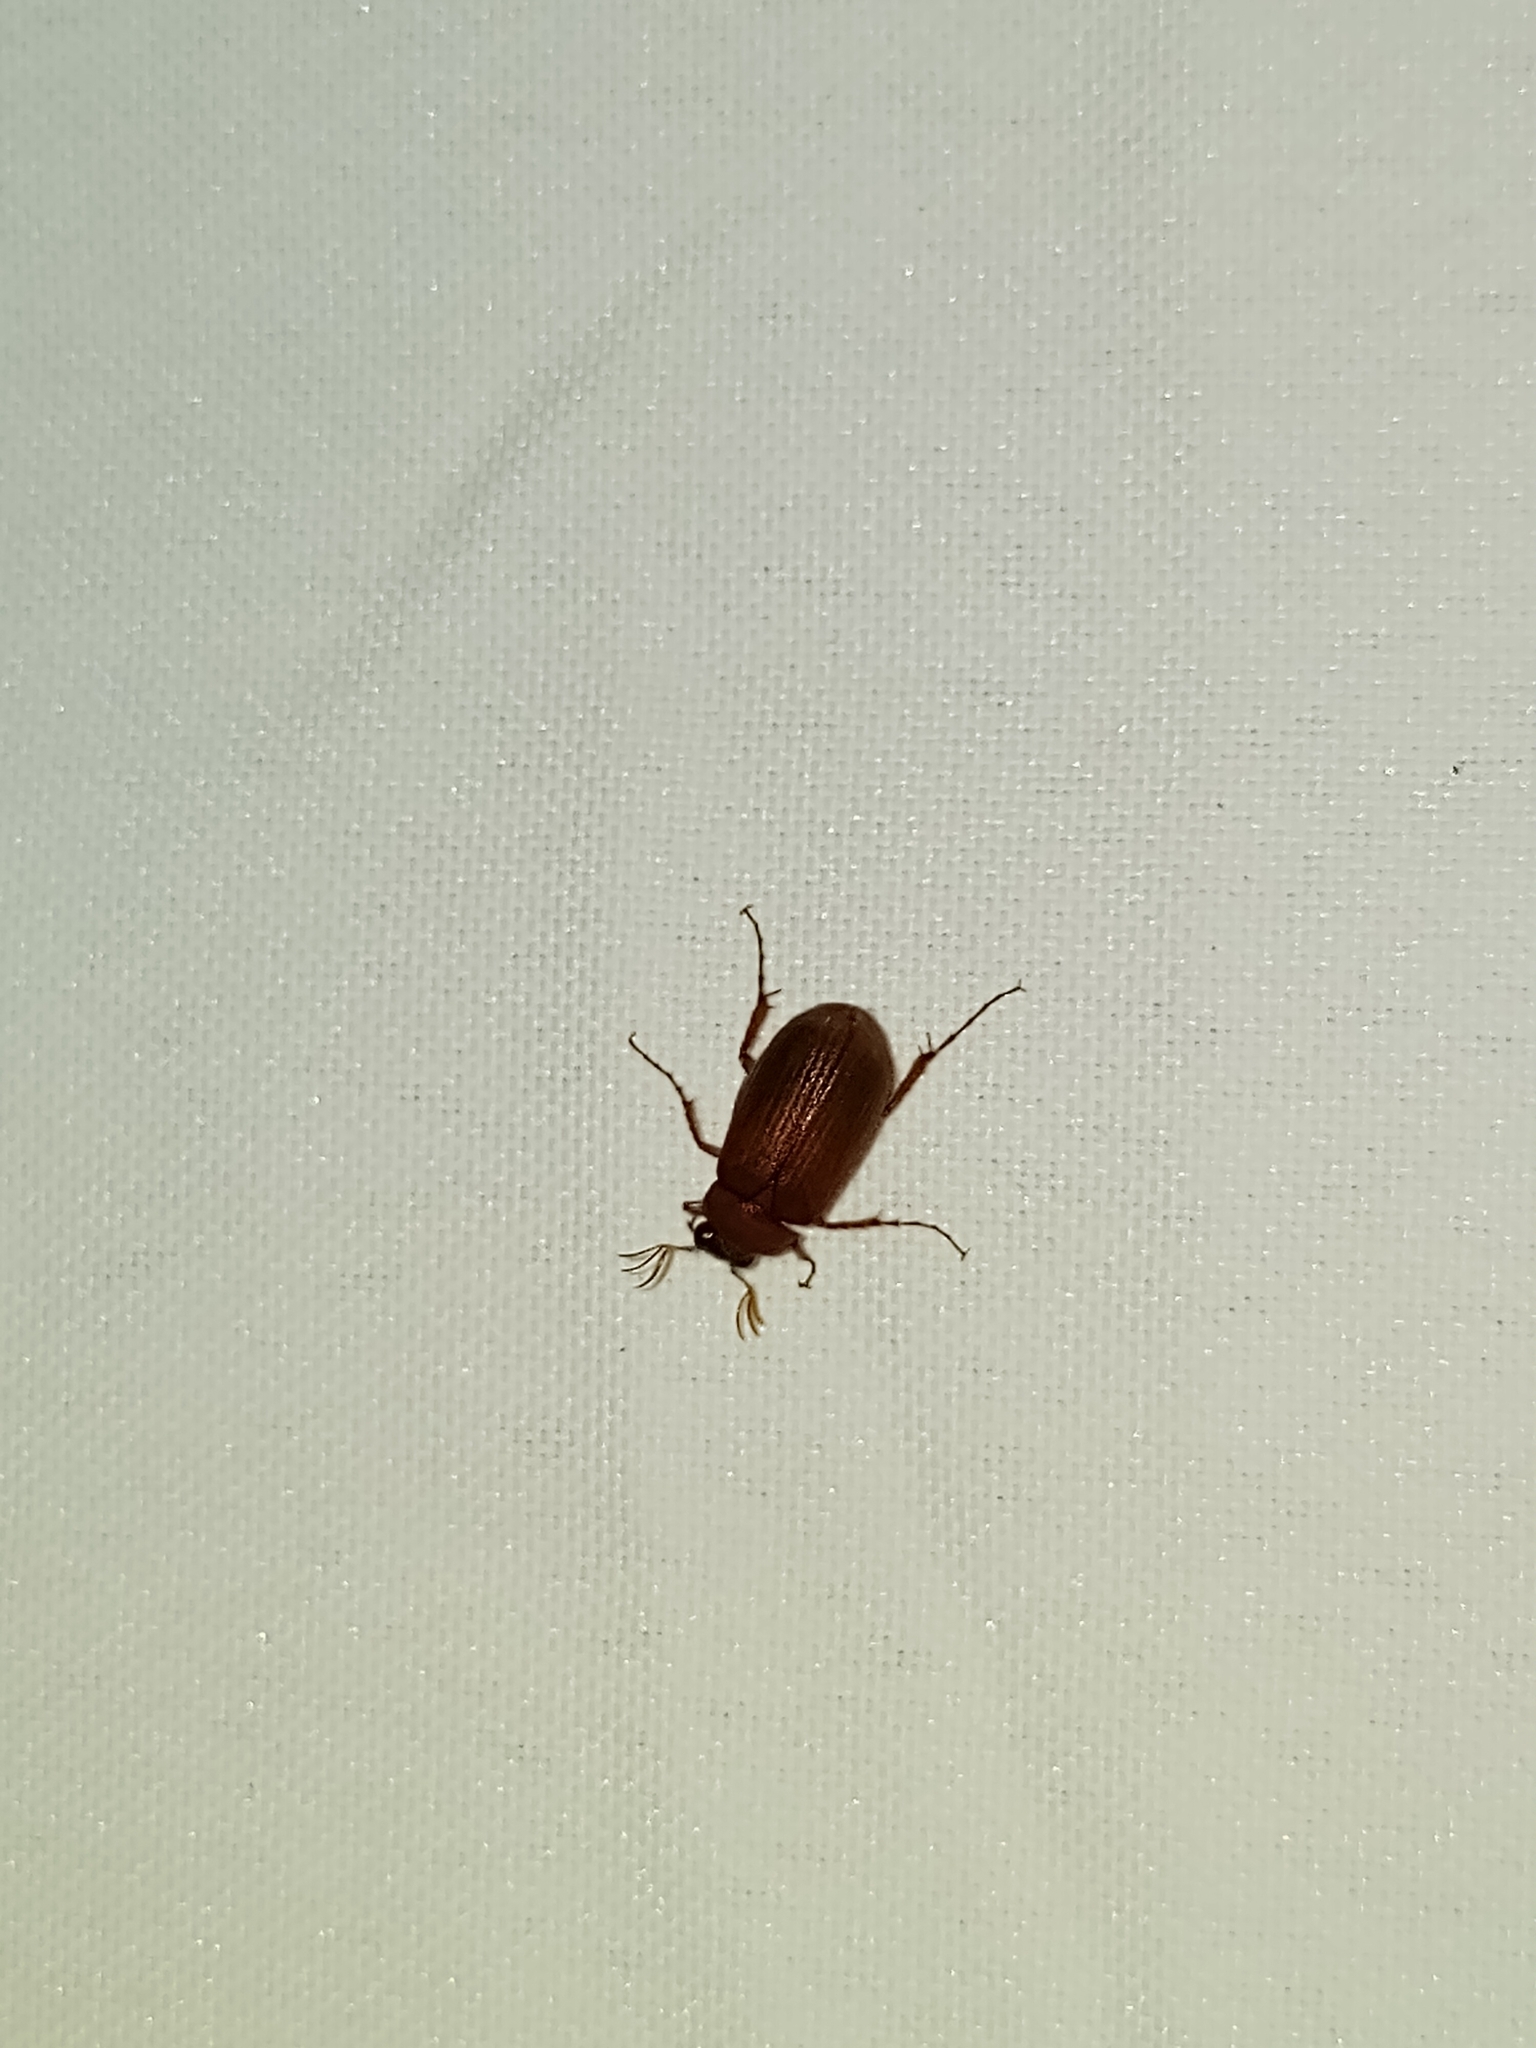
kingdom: Animalia
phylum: Arthropoda
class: Insecta
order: Coleoptera
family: Scarabaeidae
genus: Serica
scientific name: Serica brunnea
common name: Brown chafer
